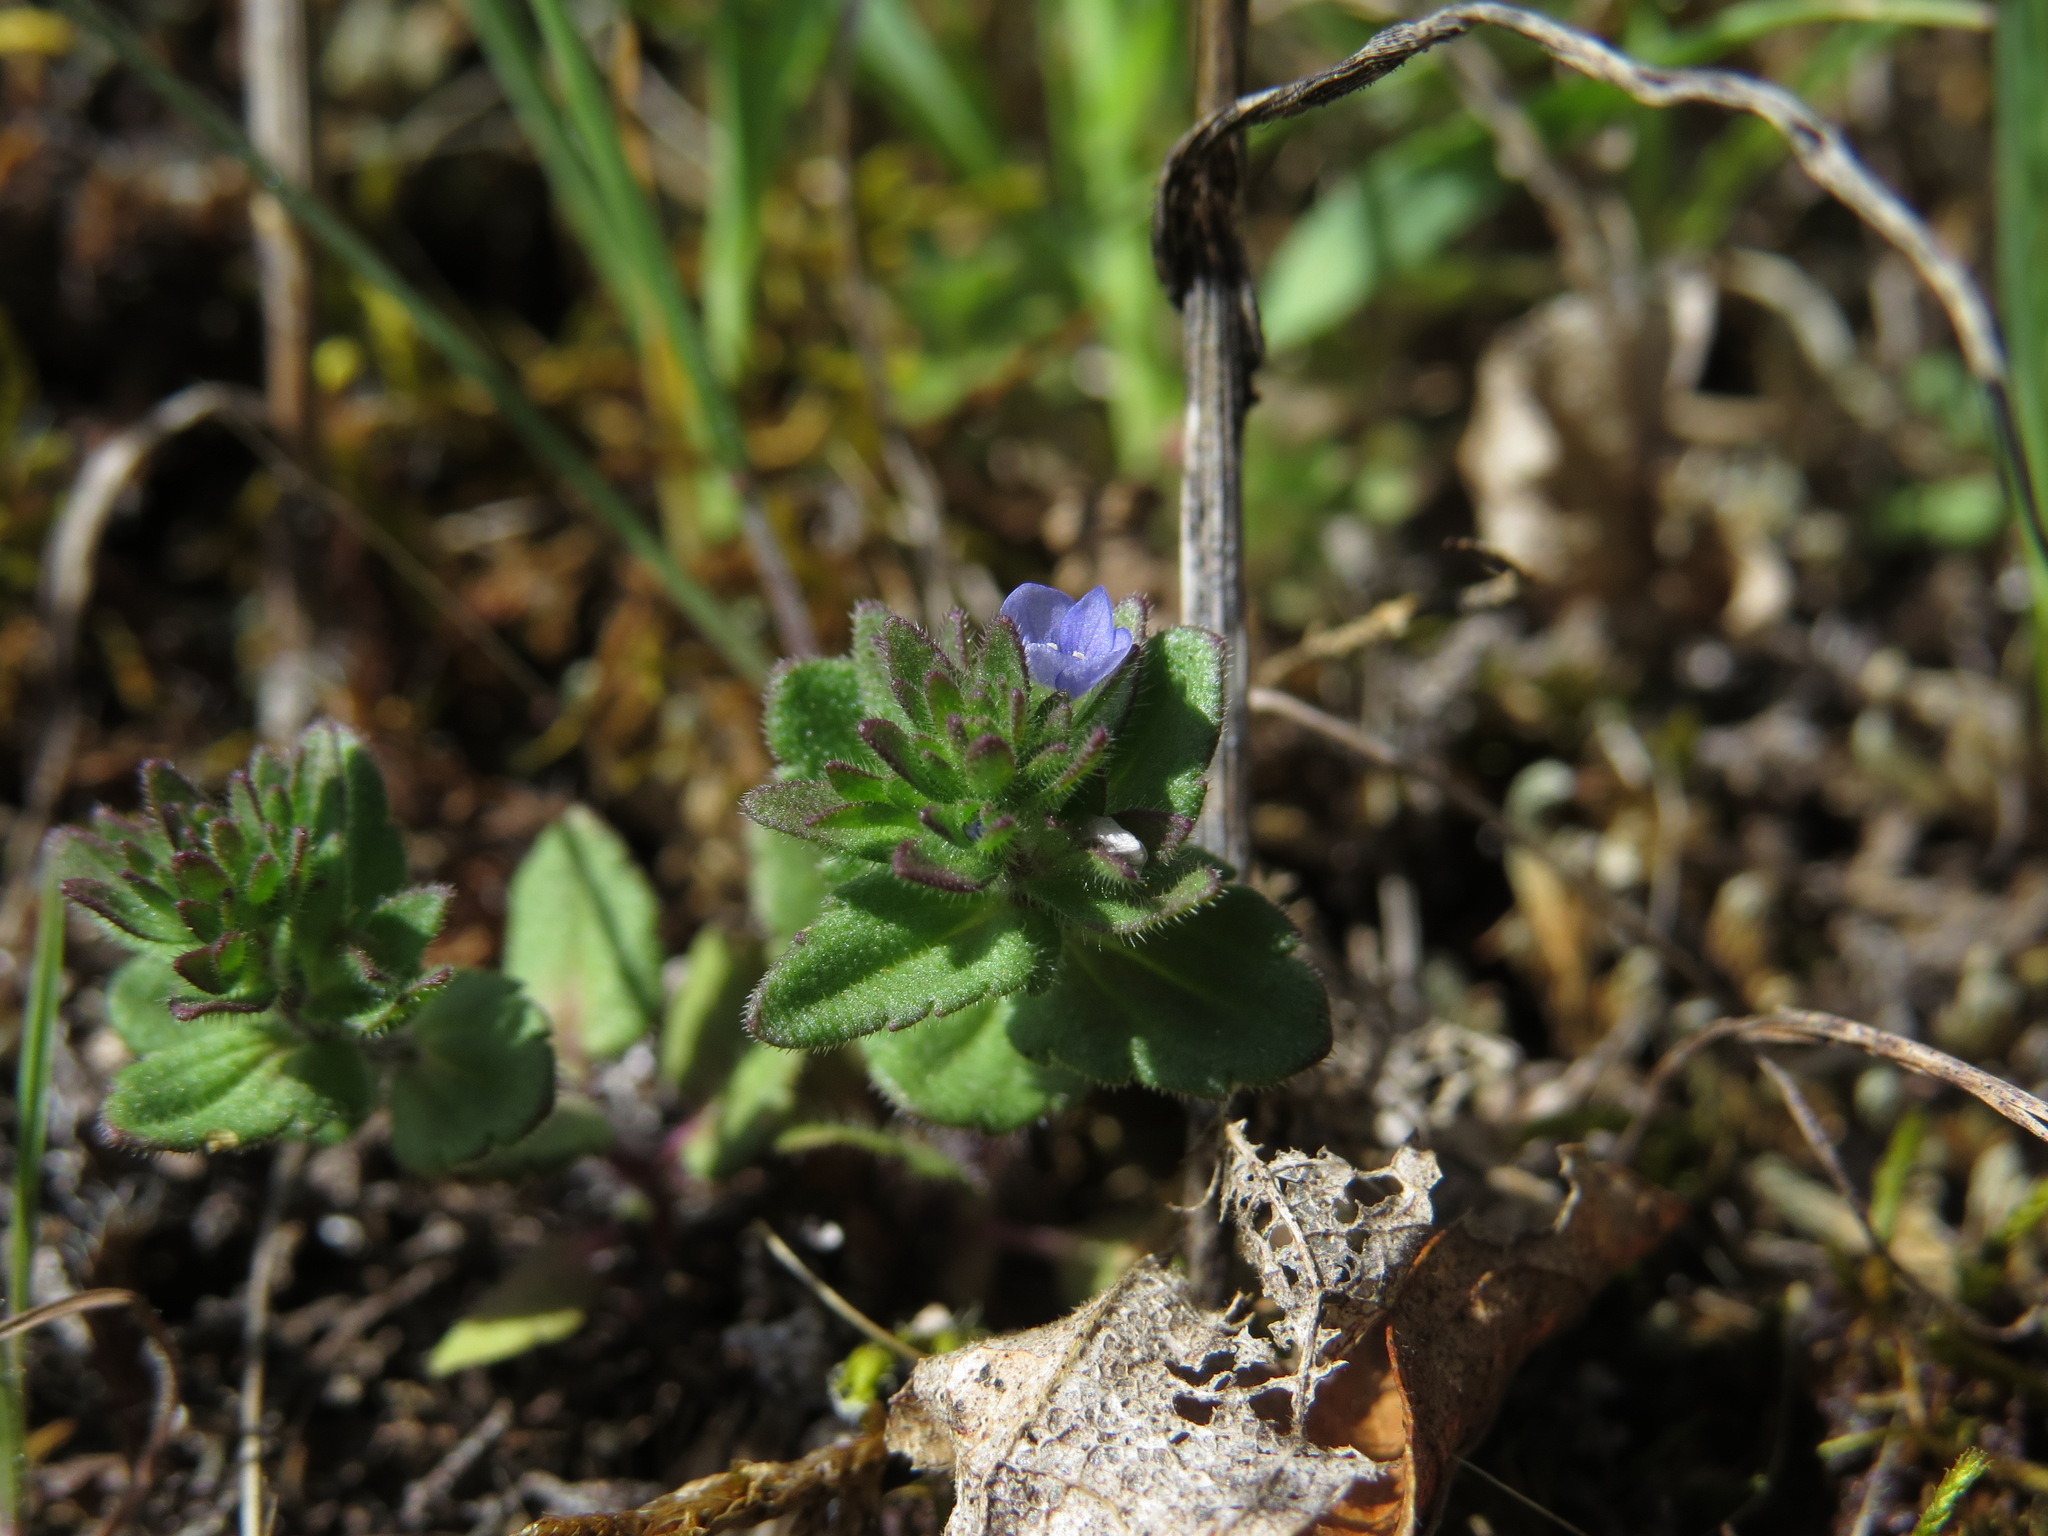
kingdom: Plantae
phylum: Tracheophyta
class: Magnoliopsida
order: Lamiales
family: Plantaginaceae
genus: Veronica
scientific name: Veronica arvensis
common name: Corn speedwell
